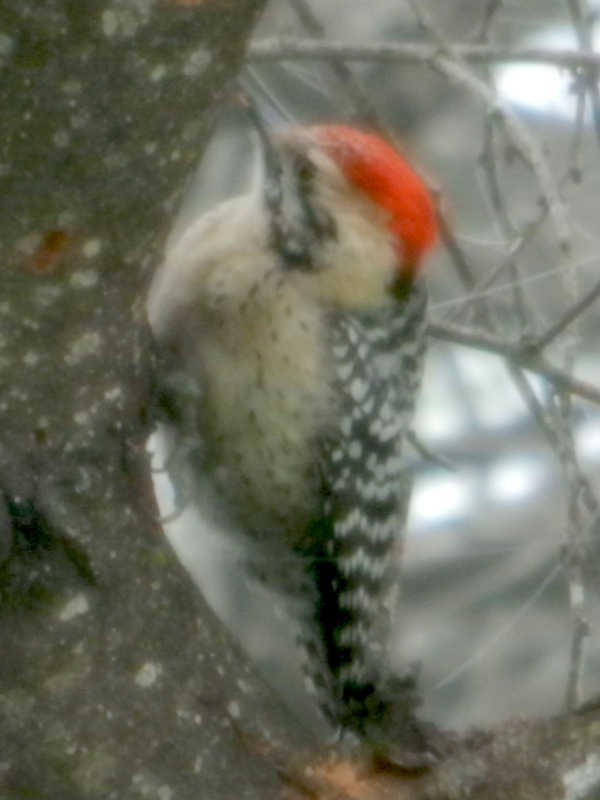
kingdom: Animalia
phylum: Chordata
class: Aves
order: Piciformes
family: Picidae
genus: Dryobates
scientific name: Dryobates scalaris
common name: Ladder-backed woodpecker
